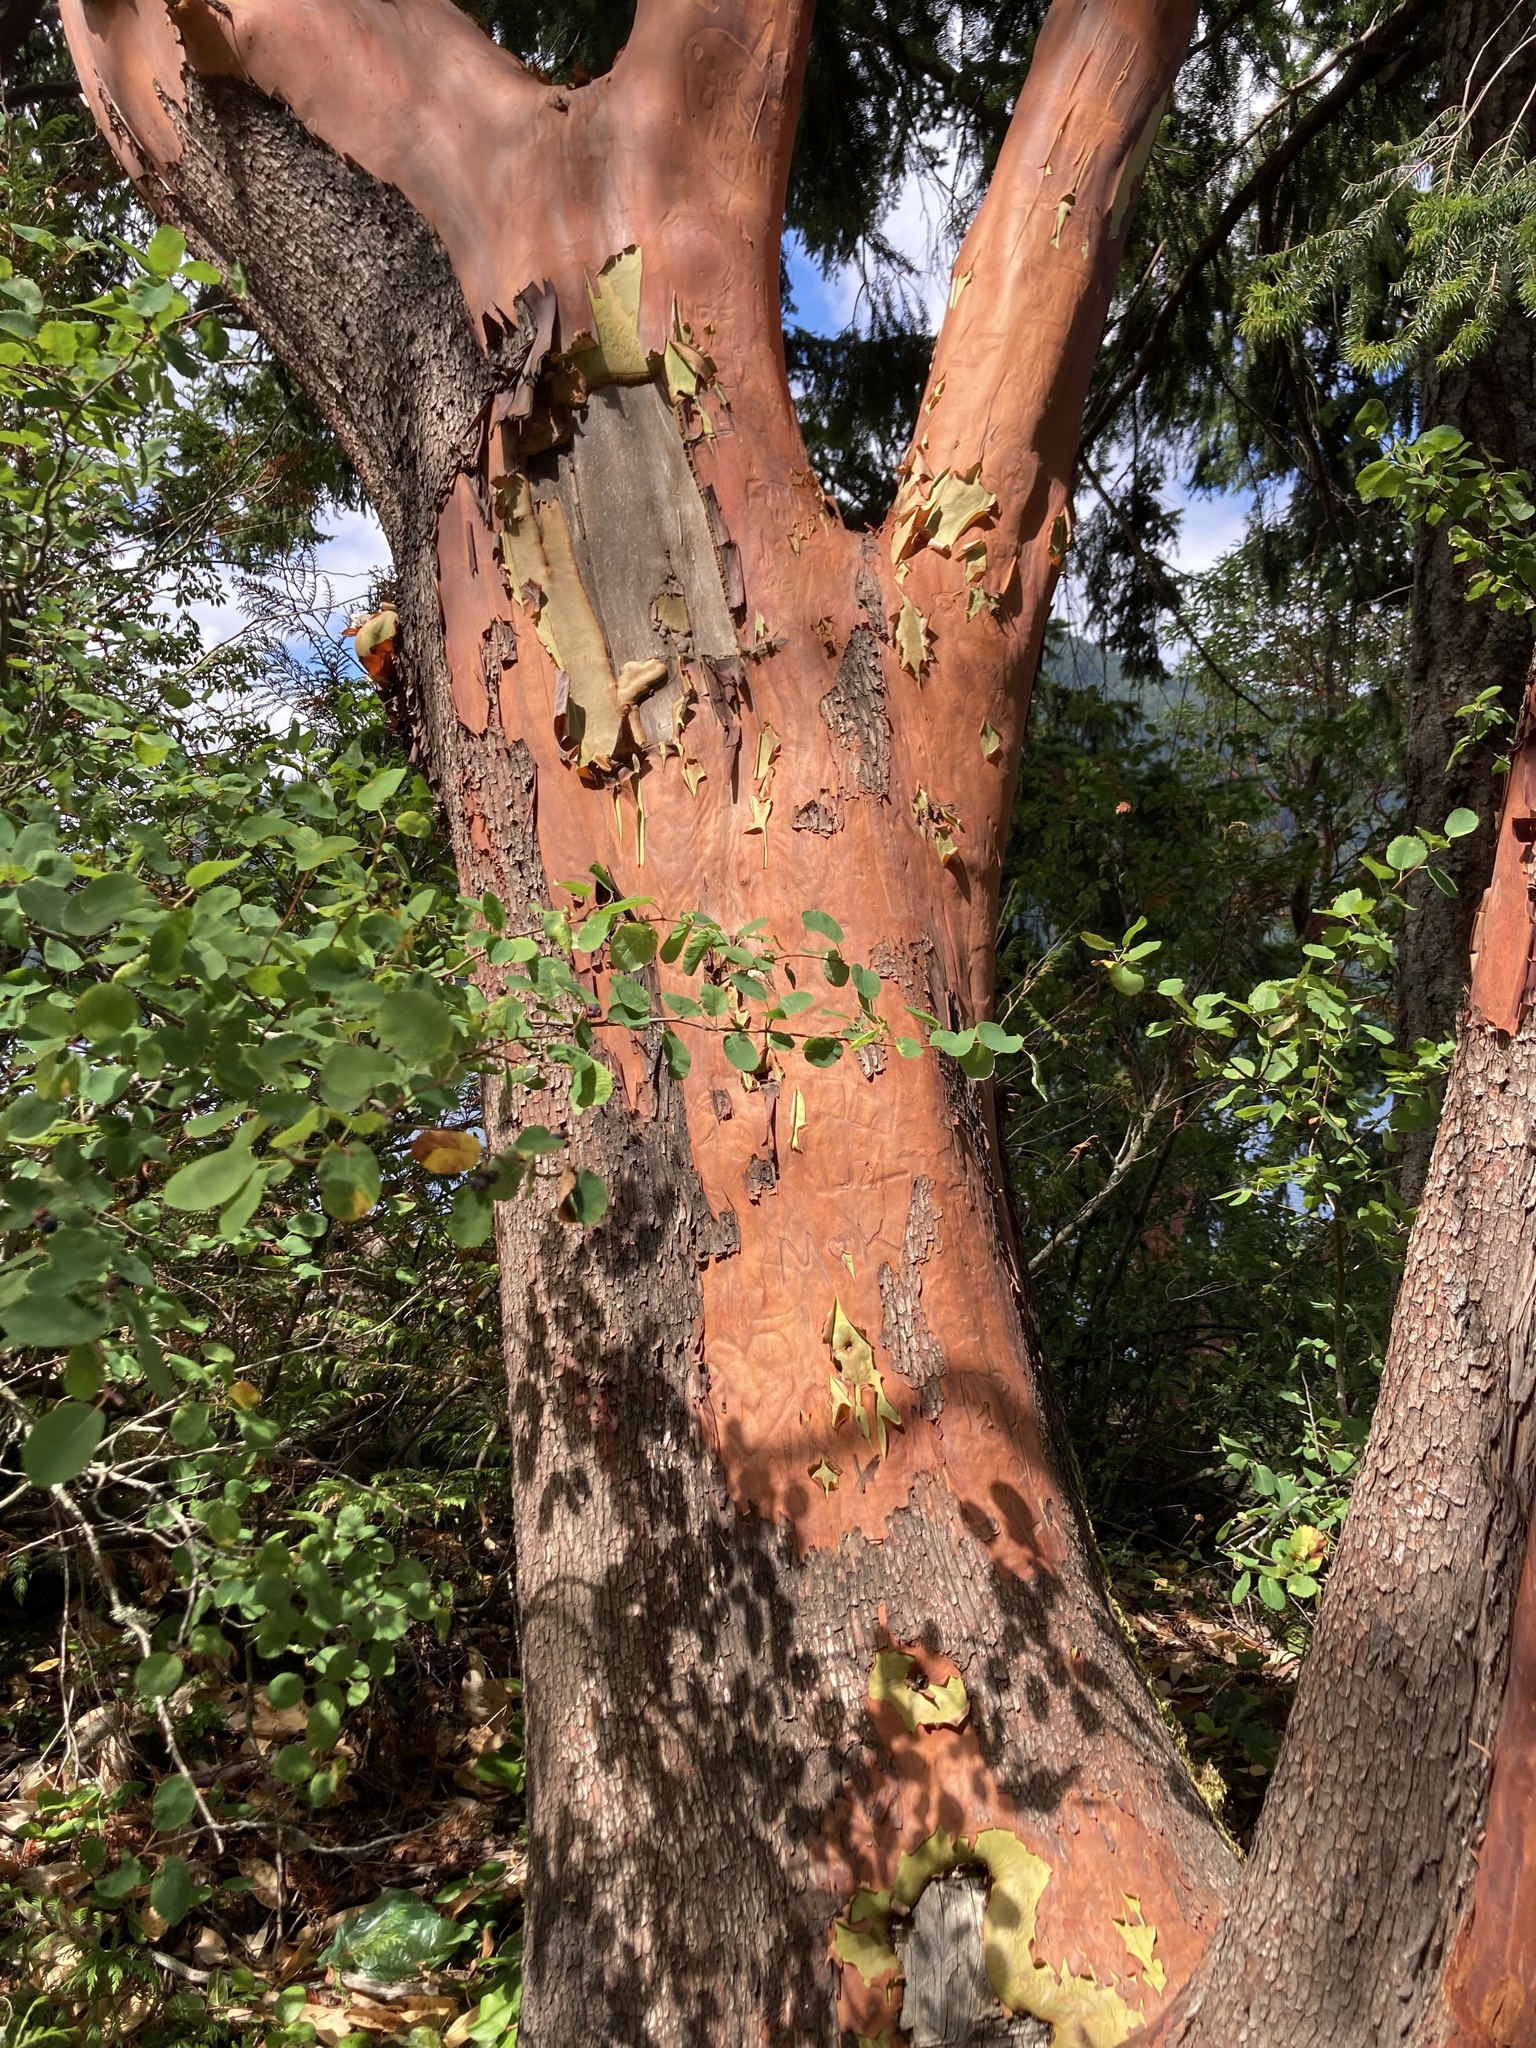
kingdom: Plantae
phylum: Tracheophyta
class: Magnoliopsida
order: Ericales
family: Ericaceae
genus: Arbutus
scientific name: Arbutus menziesii
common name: Pacific madrone
